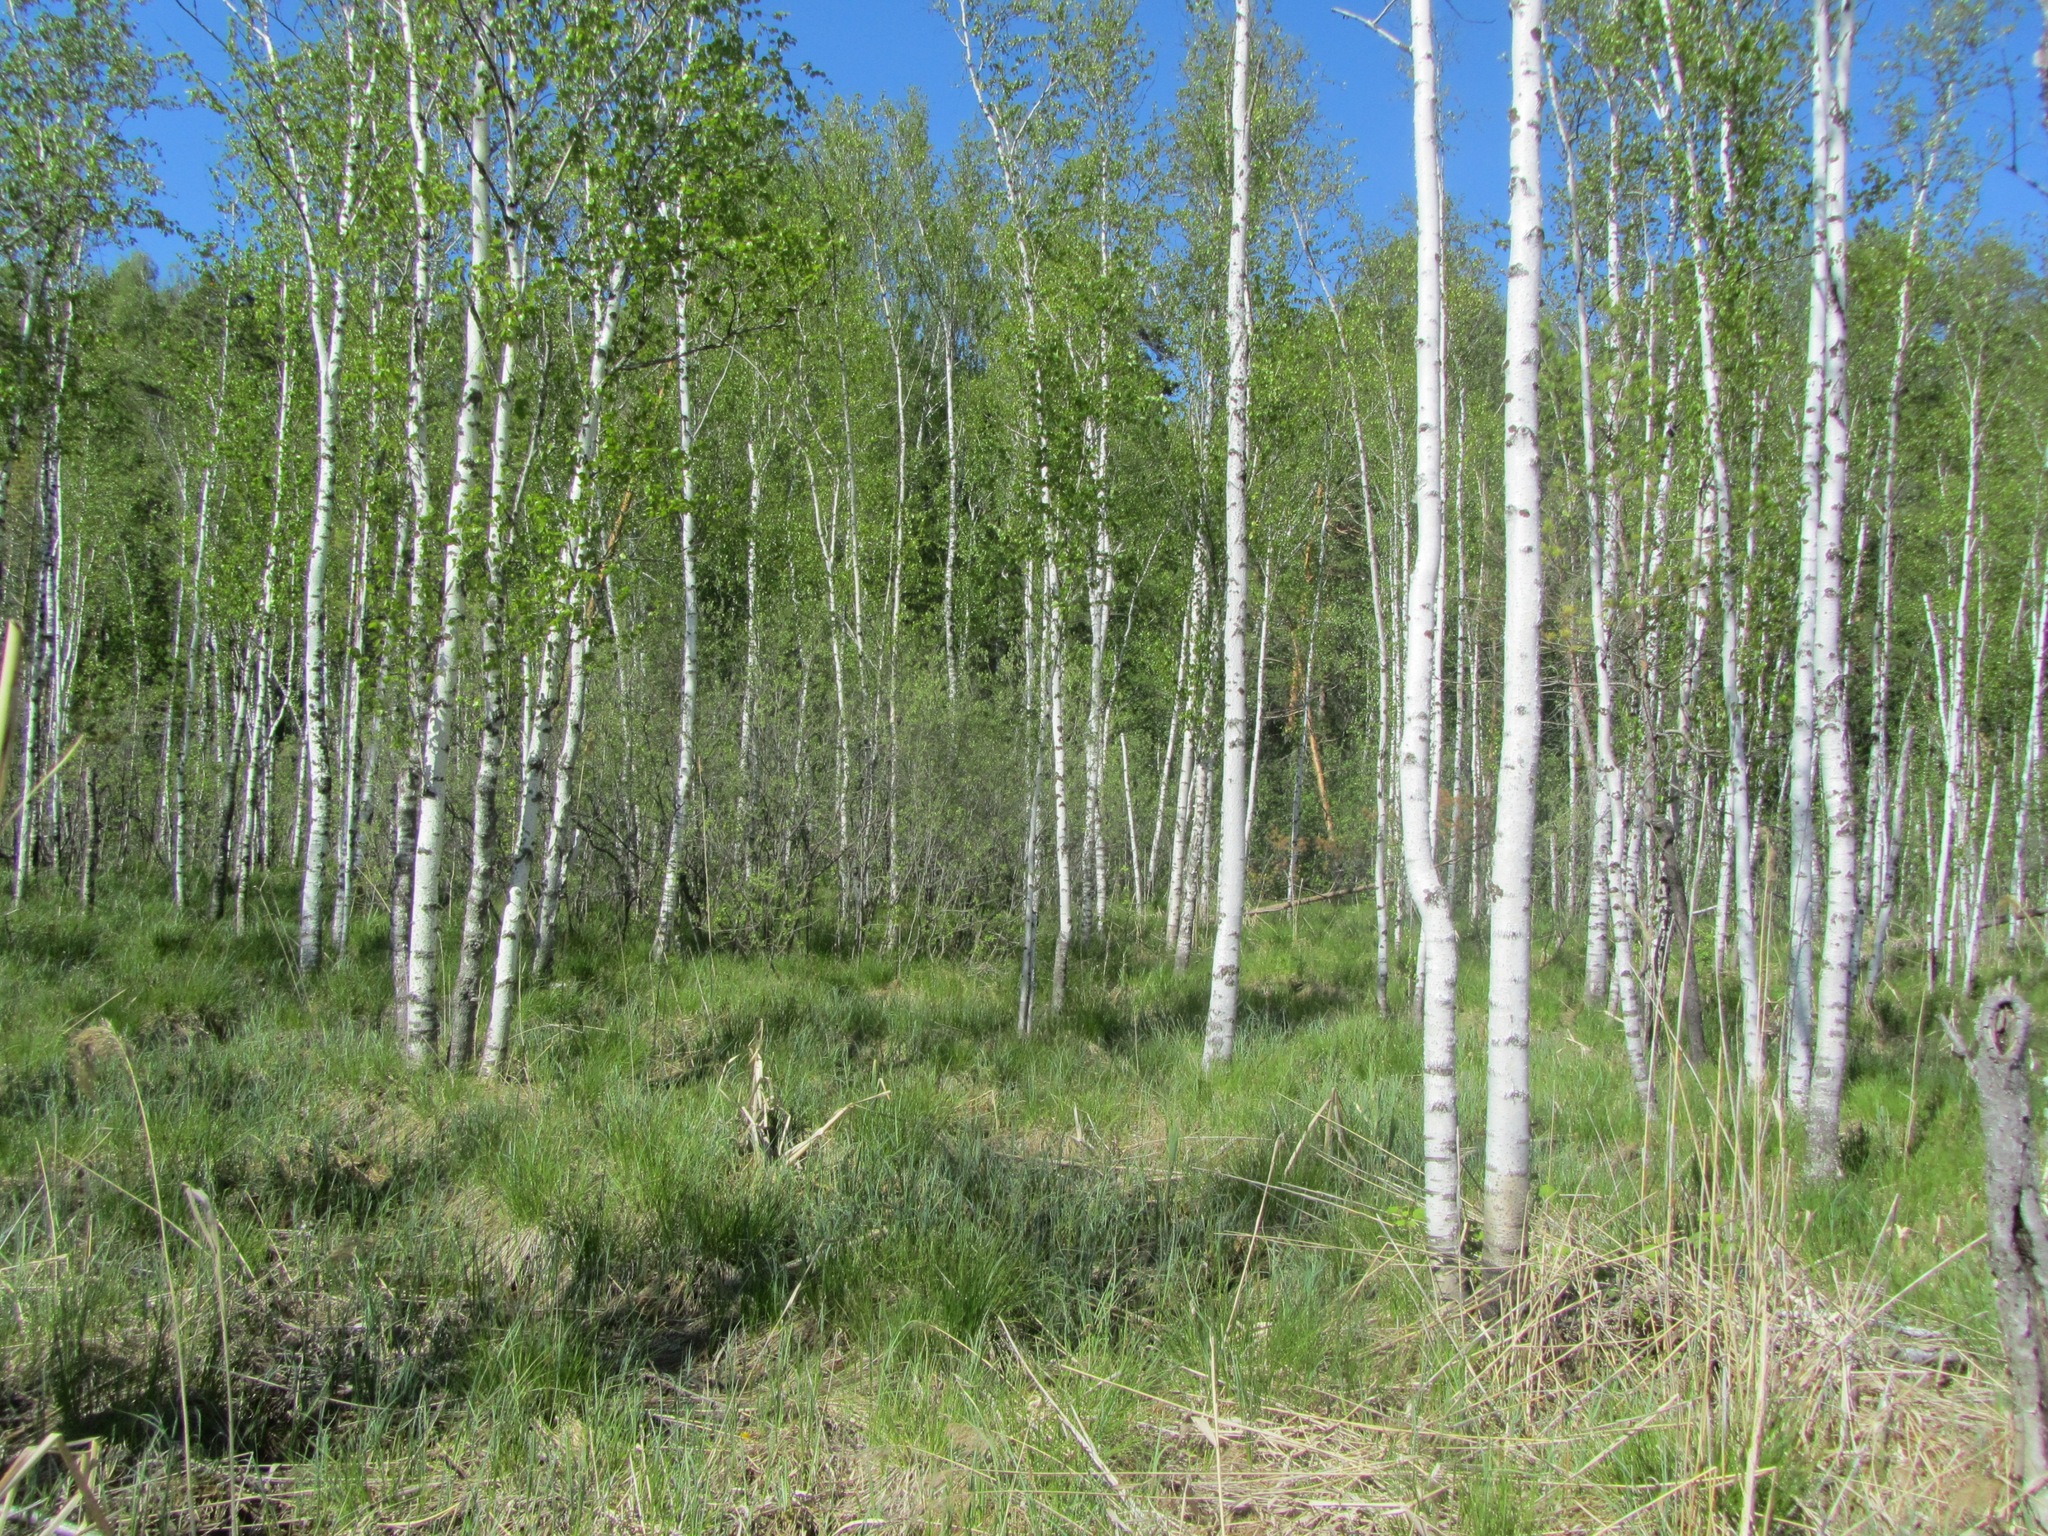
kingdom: Plantae
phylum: Tracheophyta
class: Magnoliopsida
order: Fagales
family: Betulaceae
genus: Betula
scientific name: Betula pubescens
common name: Downy birch
